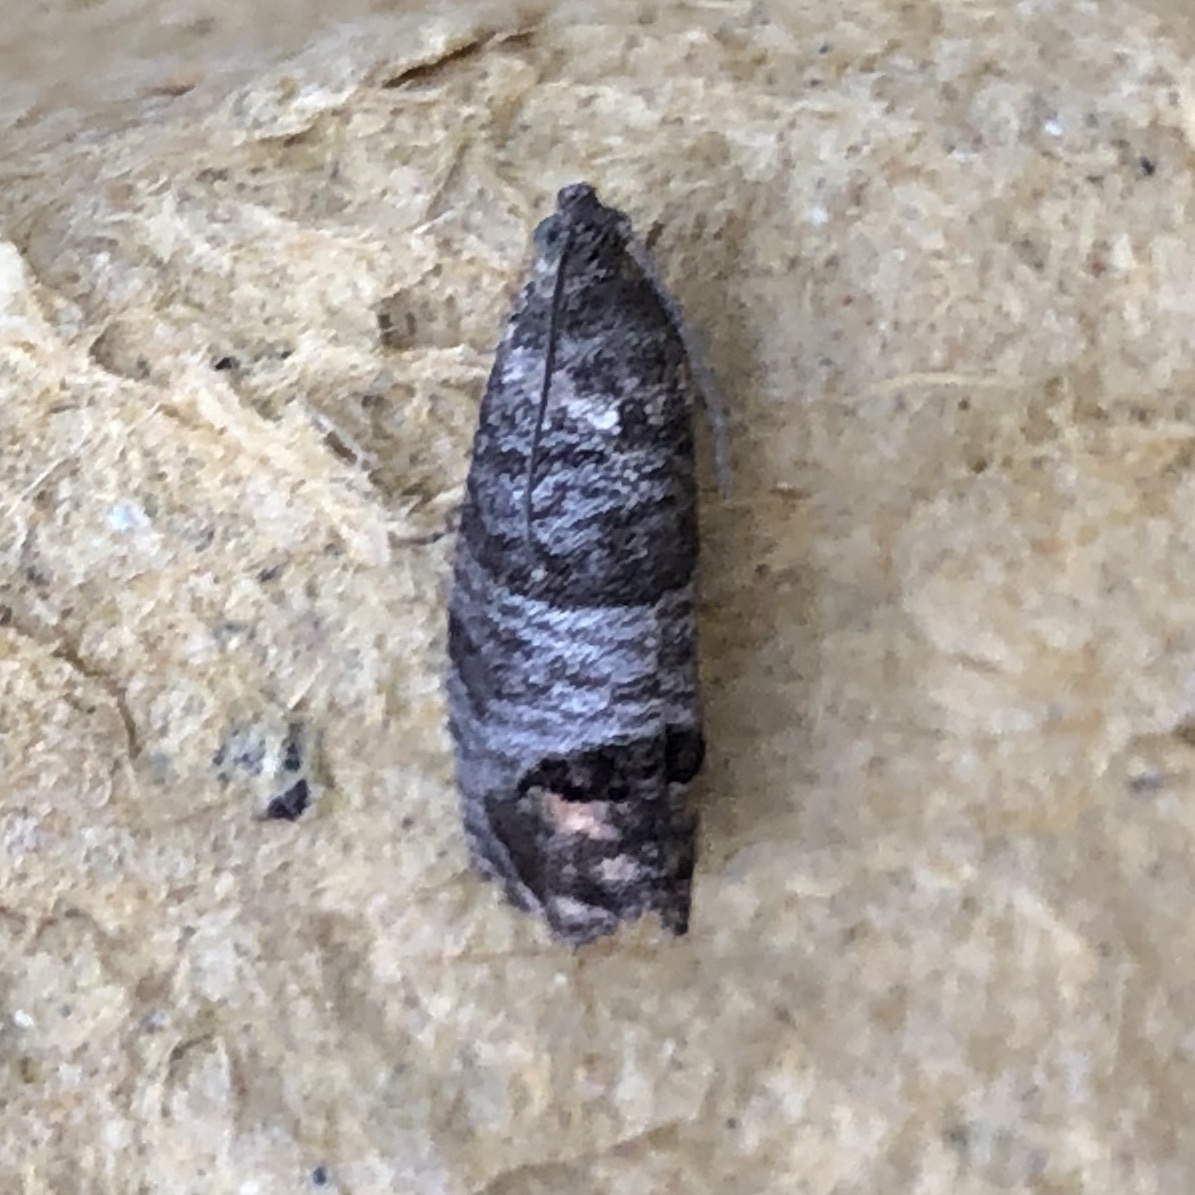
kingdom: Animalia
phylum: Arthropoda
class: Insecta
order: Lepidoptera
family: Tortricidae
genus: Cydia
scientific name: Cydia pomonella
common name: Codling moth
